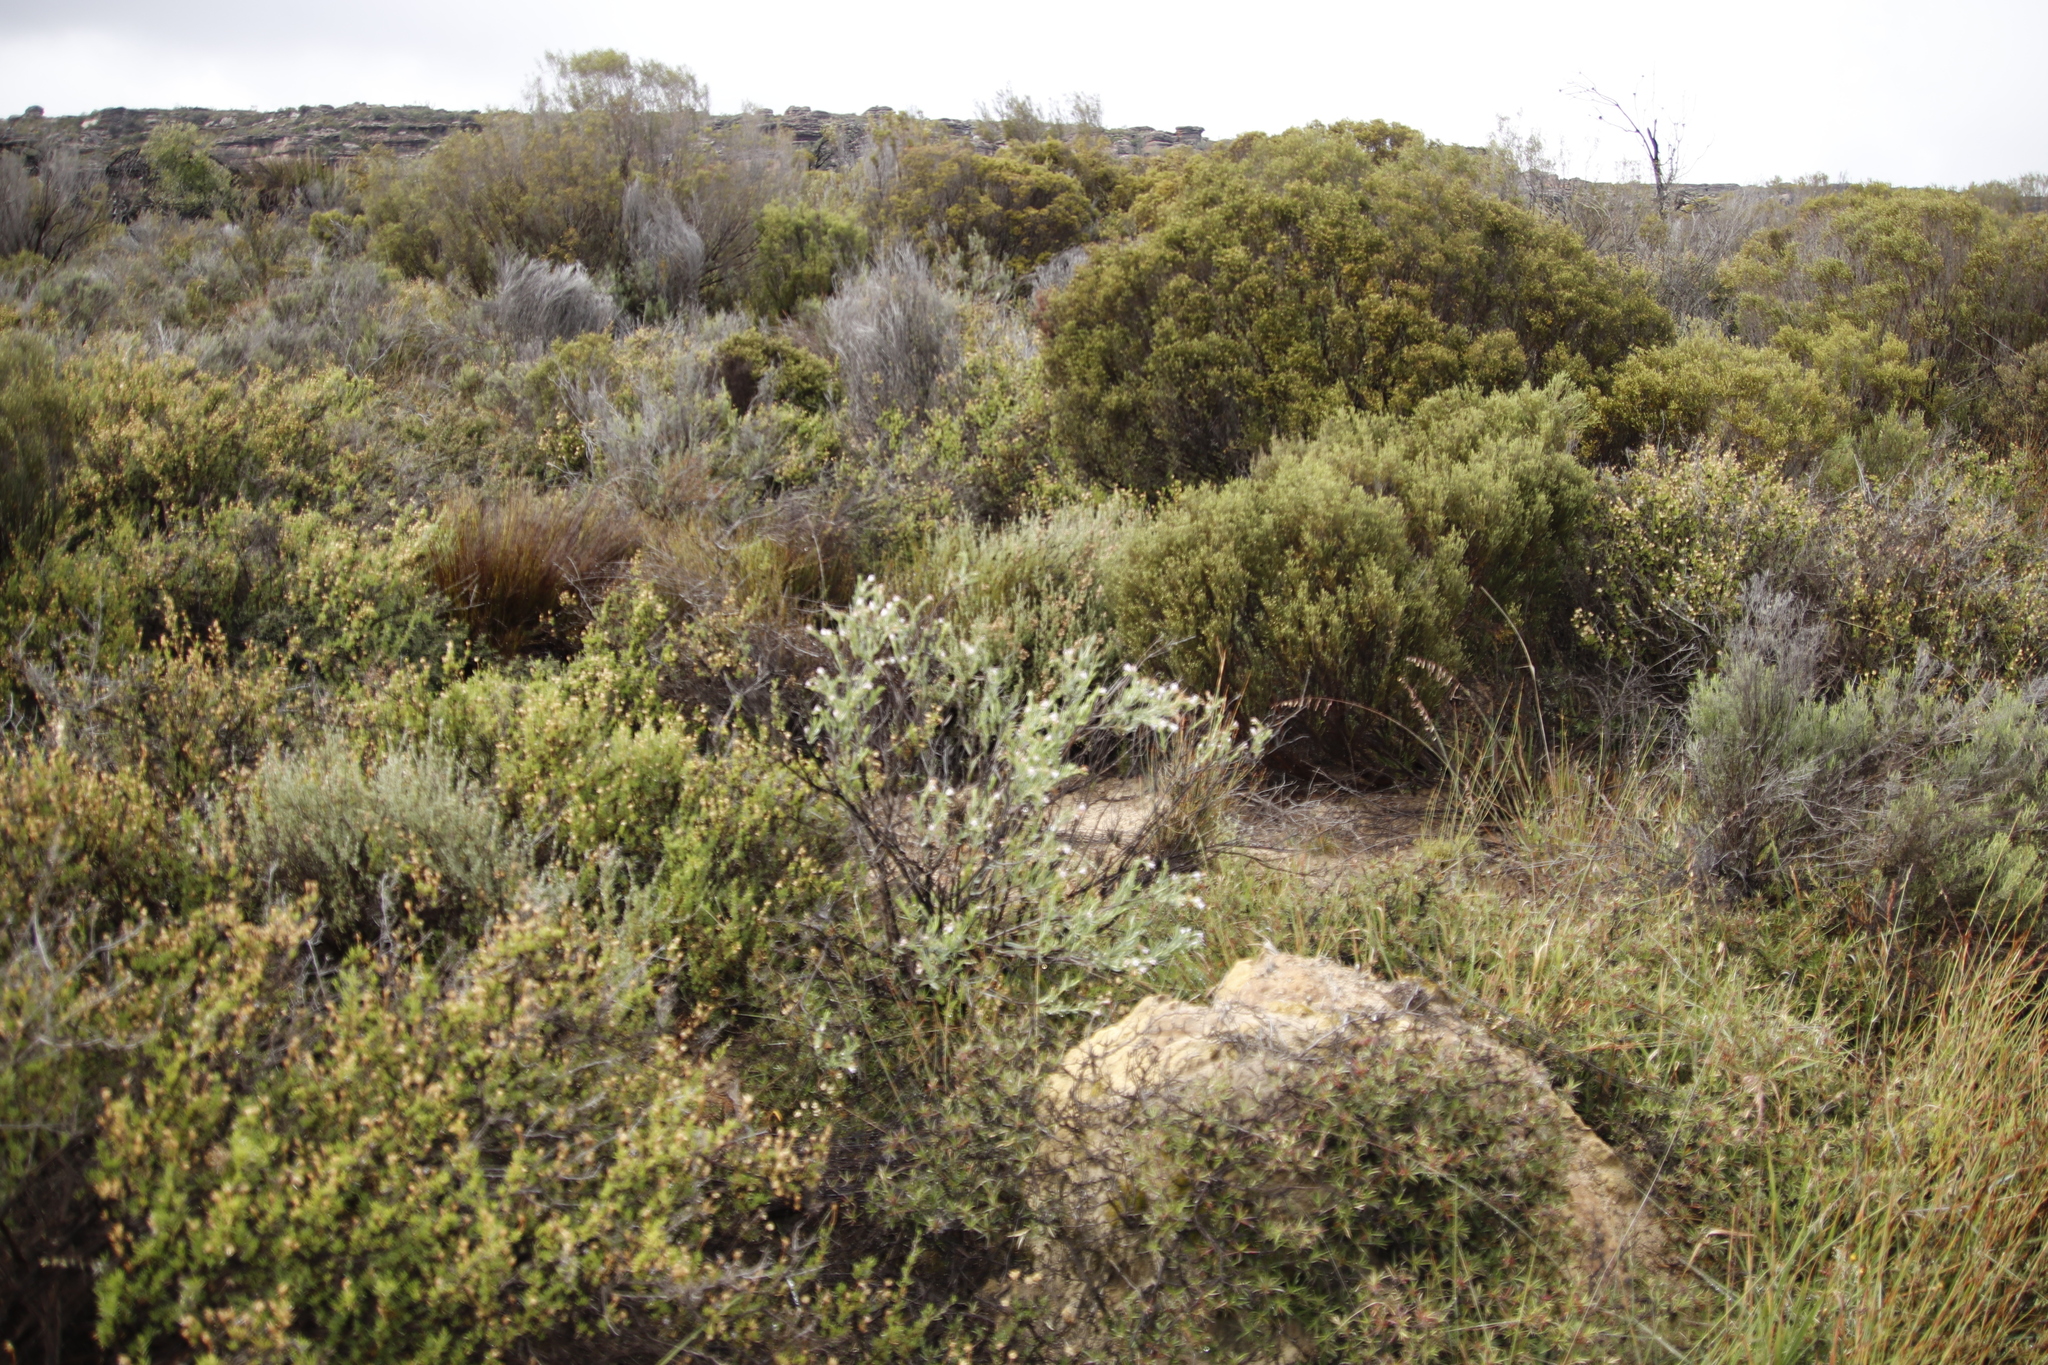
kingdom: Plantae
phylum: Tracheophyta
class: Magnoliopsida
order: Boraginales
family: Boraginaceae
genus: Lobostemon
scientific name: Lobostemon glaucophyllus
